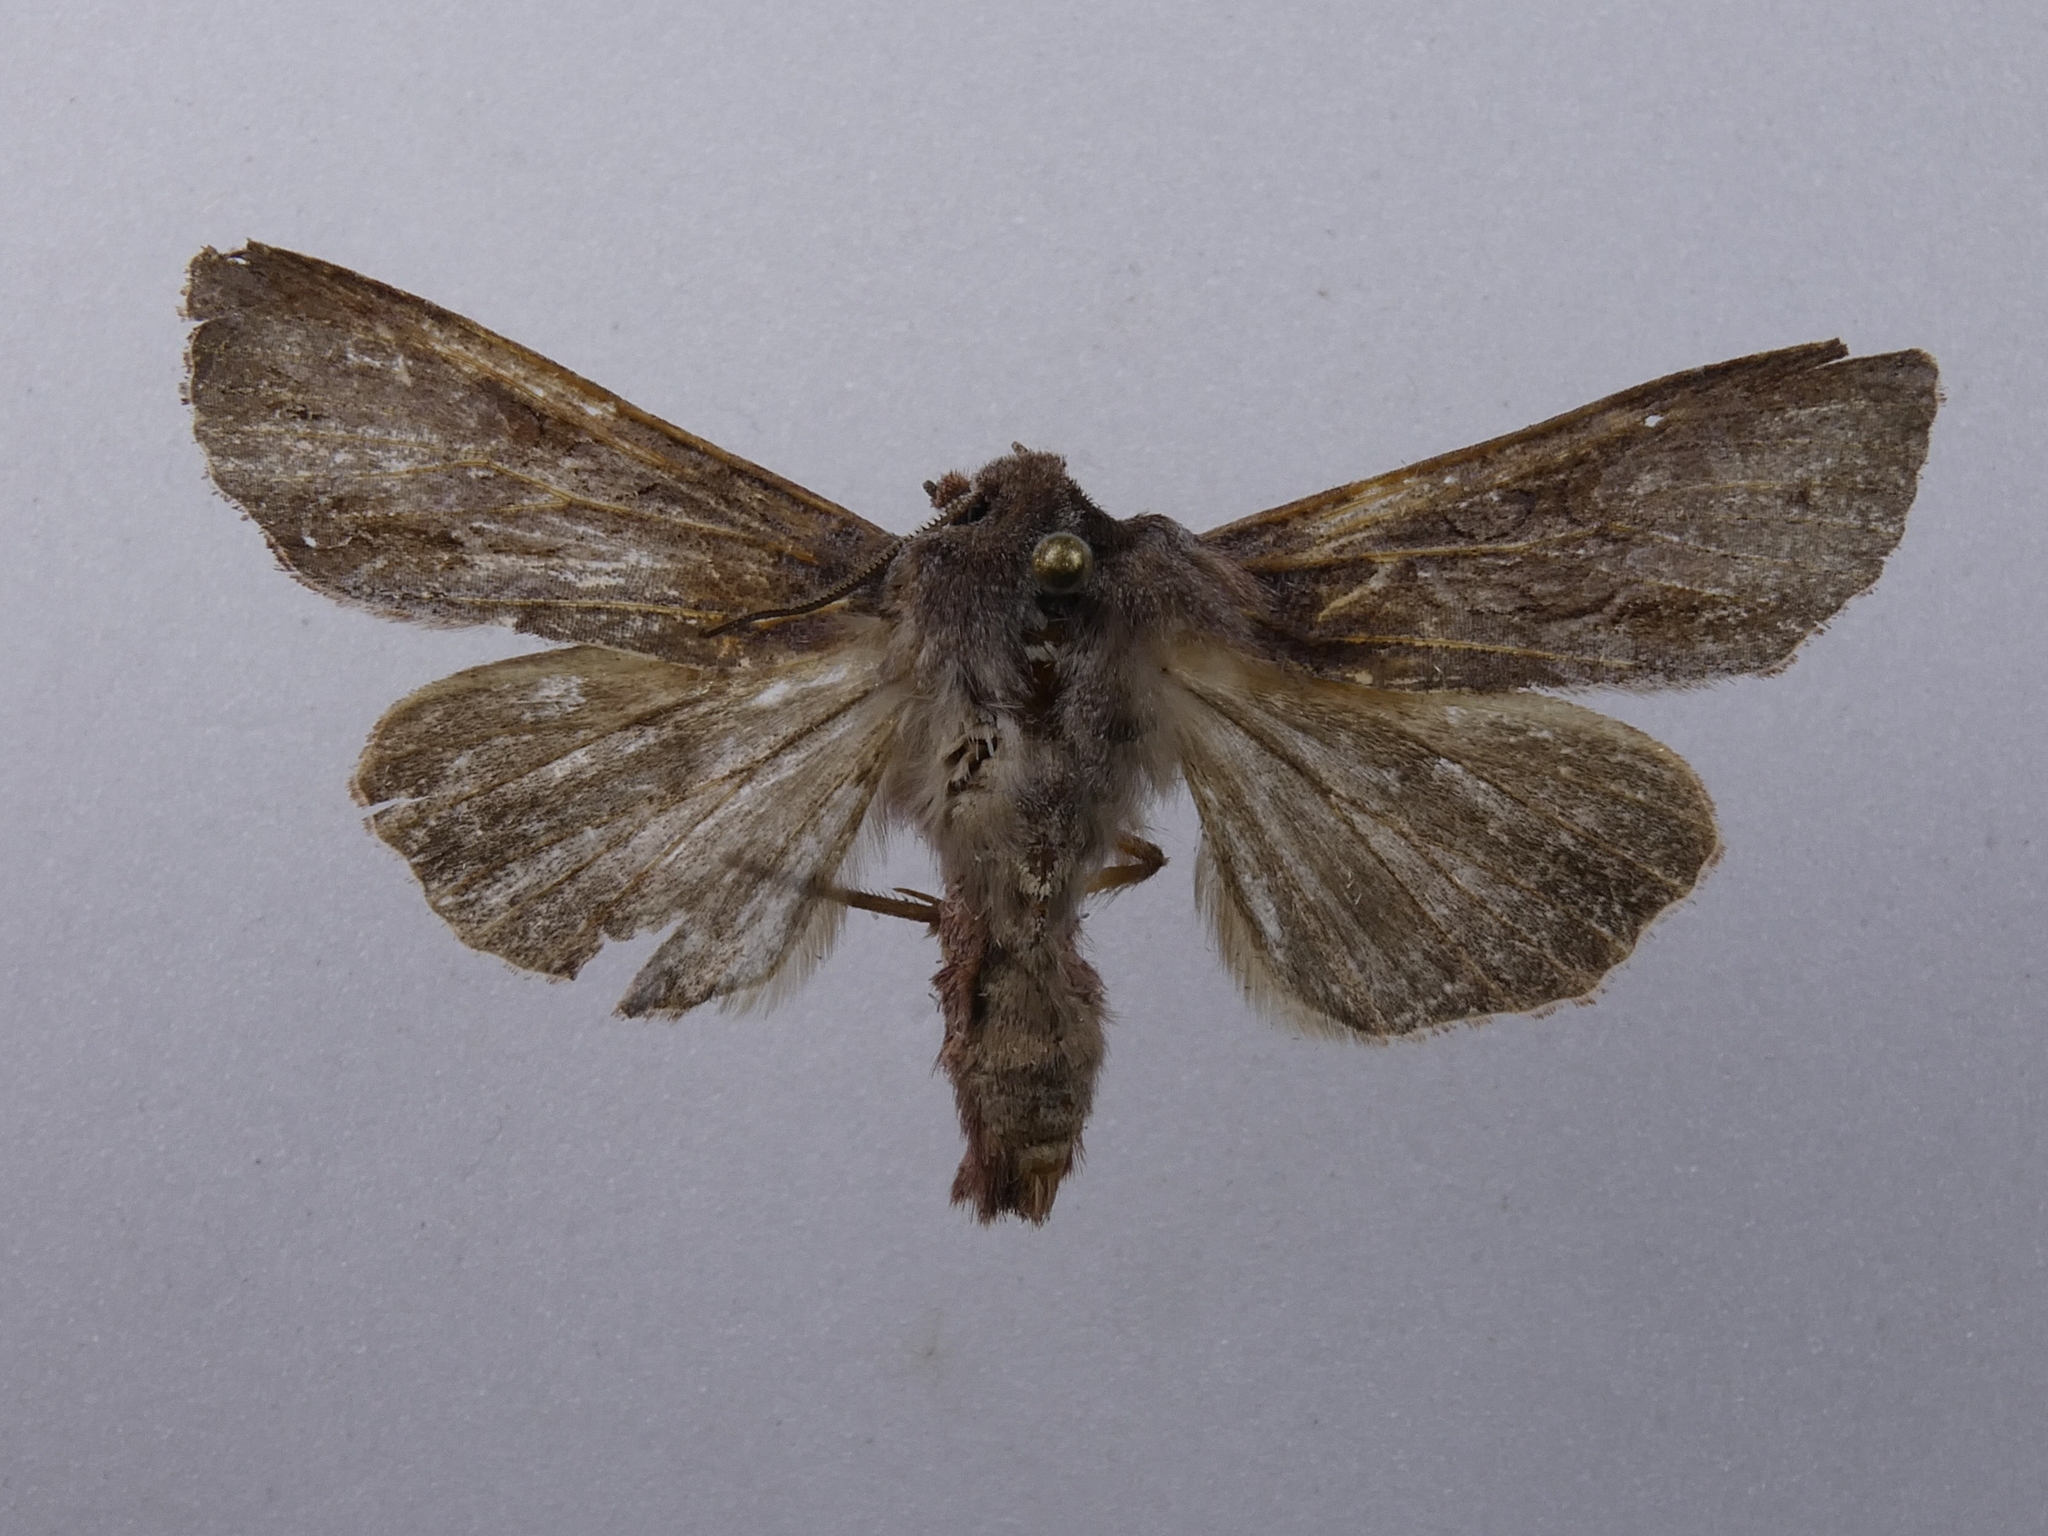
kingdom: Animalia
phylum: Arthropoda
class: Insecta
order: Lepidoptera
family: Noctuidae
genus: Ichneutica
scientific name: Ichneutica
